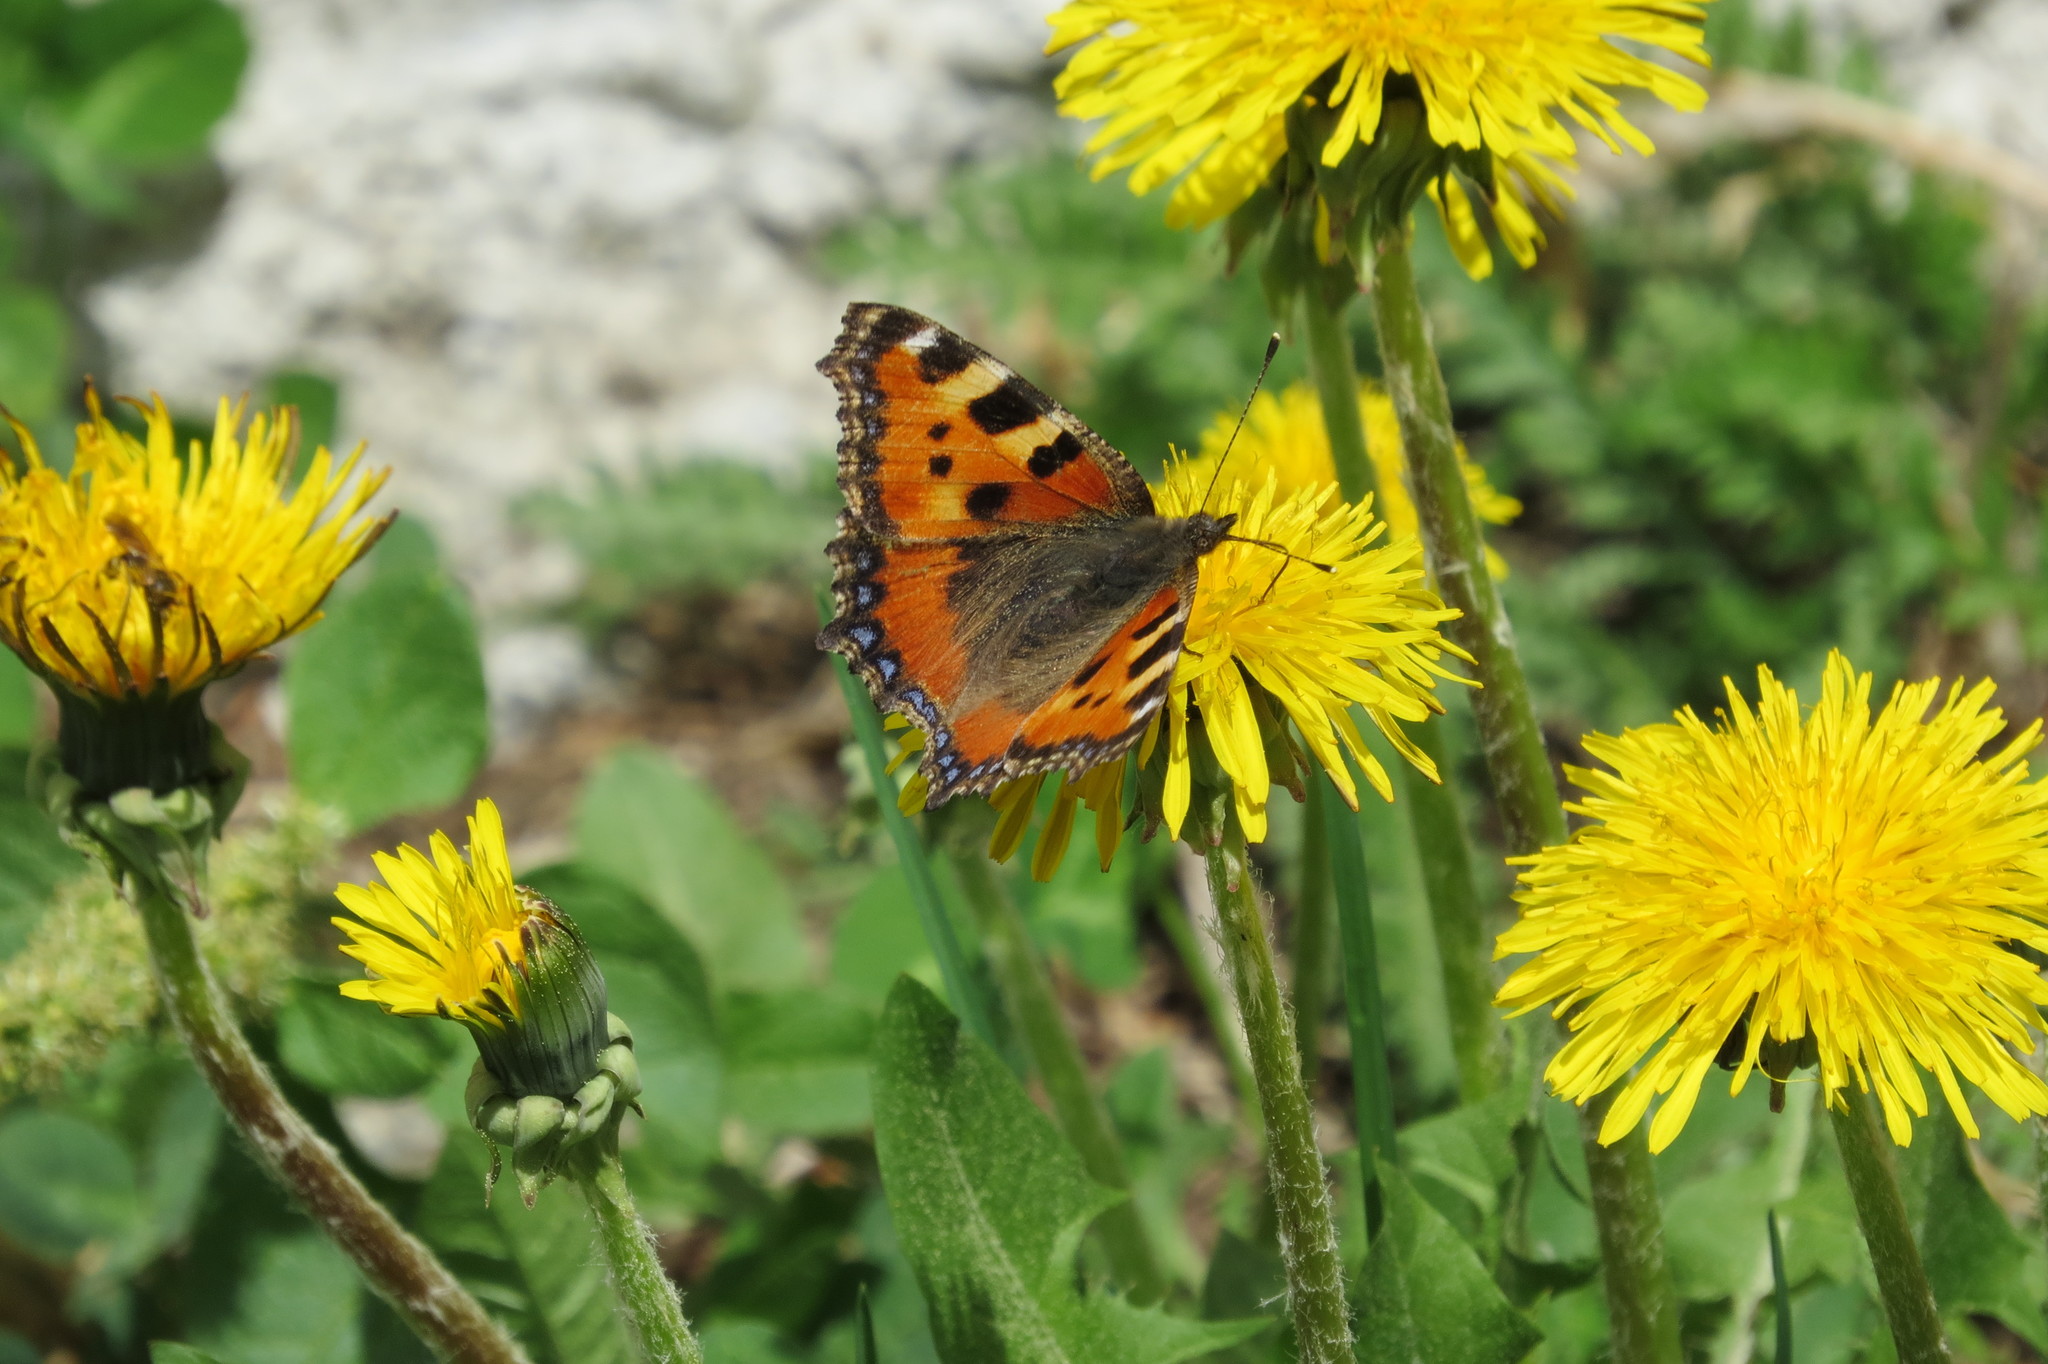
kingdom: Animalia
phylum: Arthropoda
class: Insecta
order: Lepidoptera
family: Nymphalidae
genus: Aglais
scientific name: Aglais urticae
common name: Small tortoiseshell
